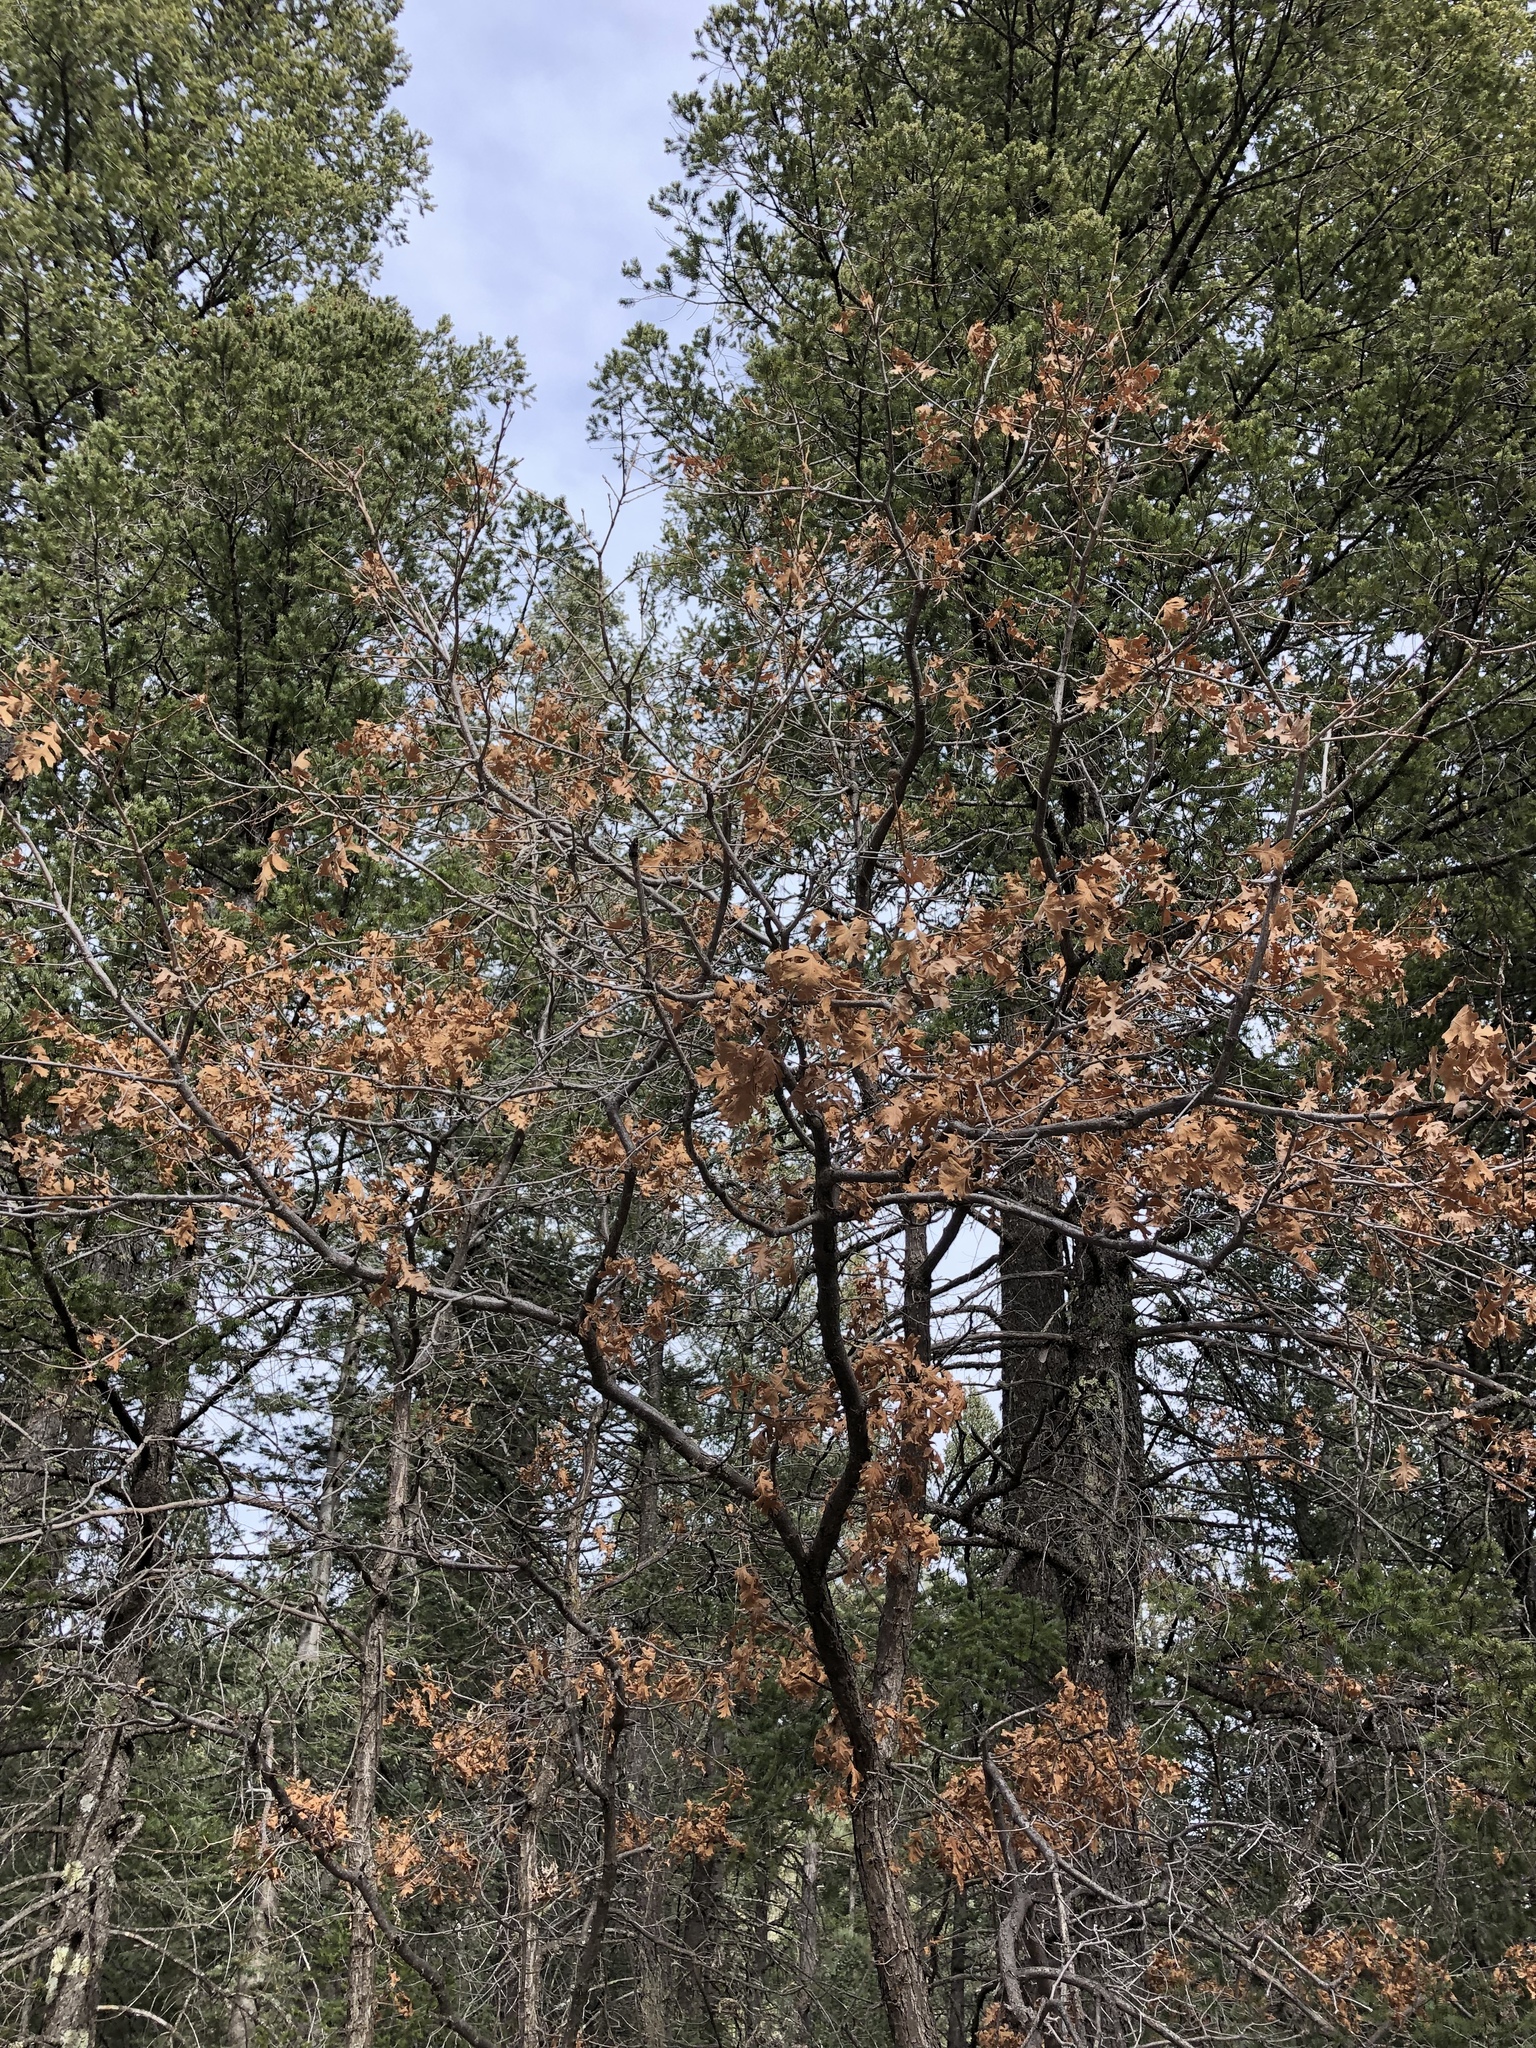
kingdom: Plantae
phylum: Tracheophyta
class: Magnoliopsida
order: Fagales
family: Fagaceae
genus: Quercus
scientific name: Quercus gambelii
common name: Gambel oak
